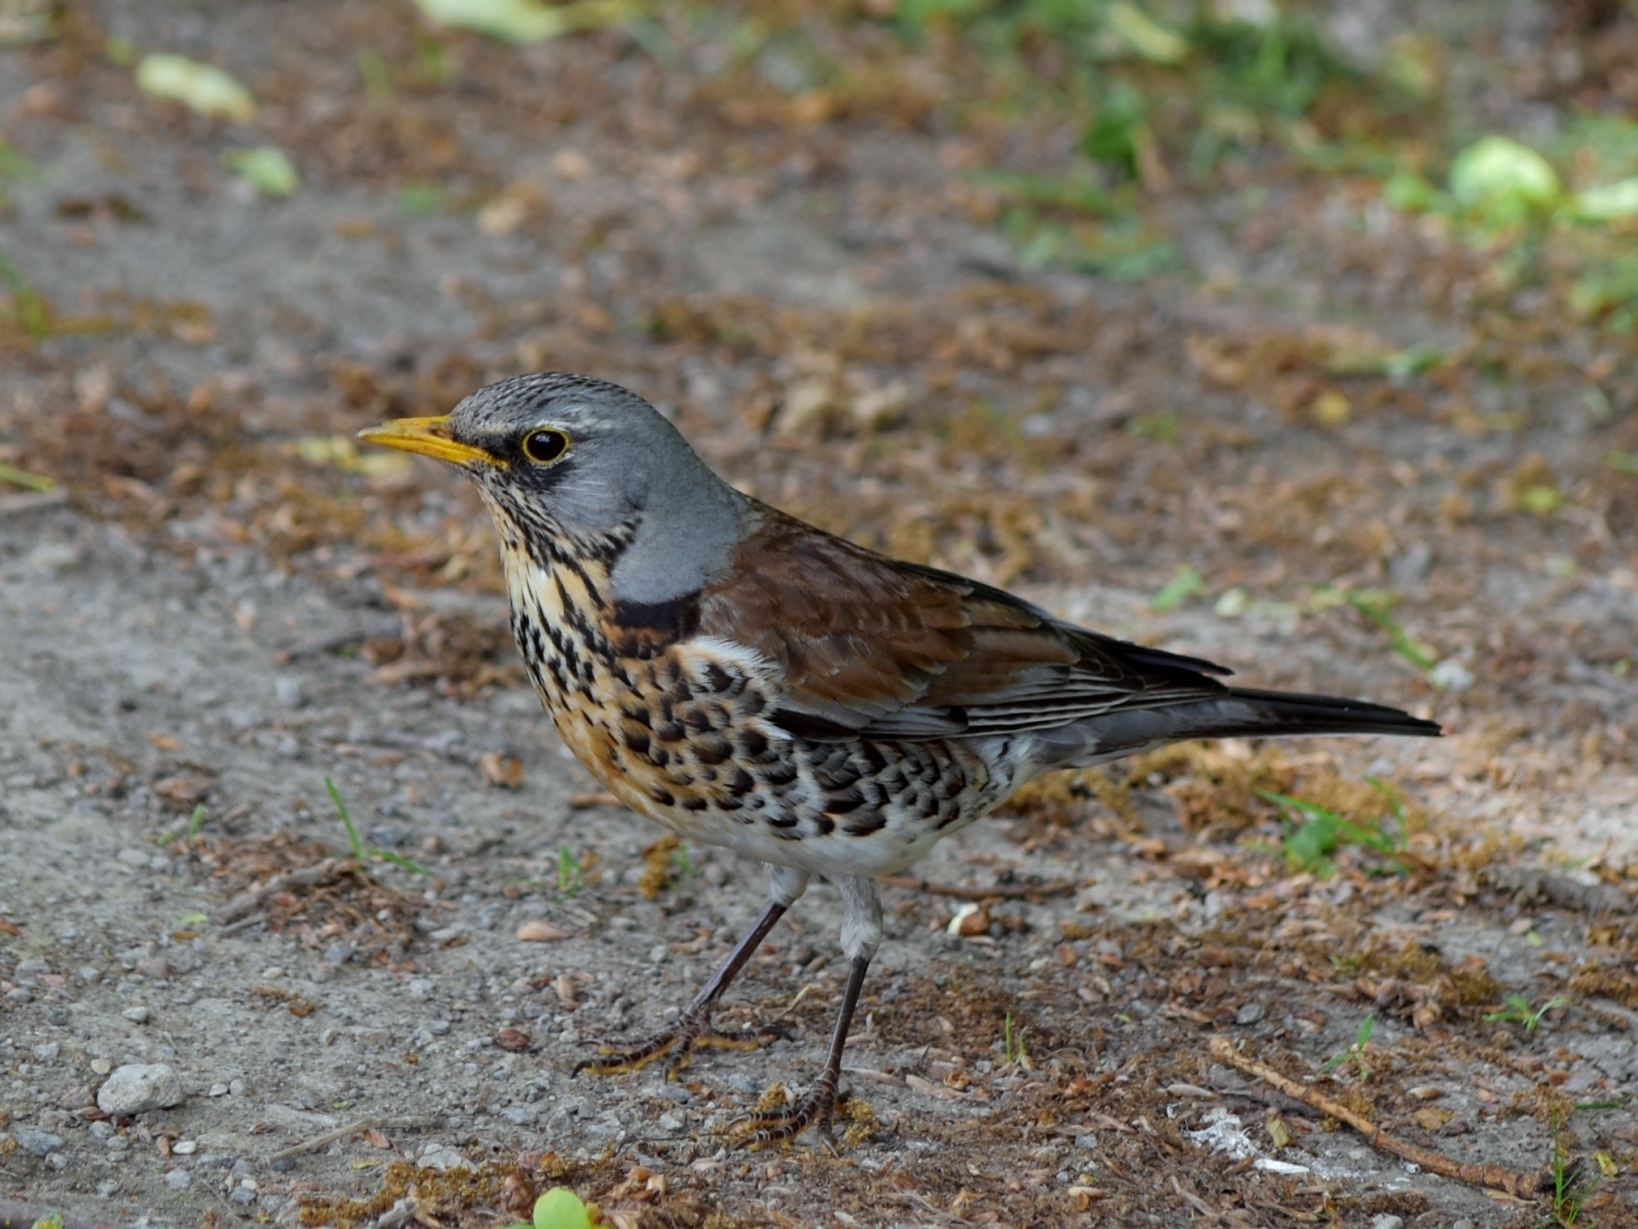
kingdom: Animalia
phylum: Chordata
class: Aves
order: Passeriformes
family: Turdidae
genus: Turdus
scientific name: Turdus pilaris
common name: Fieldfare
